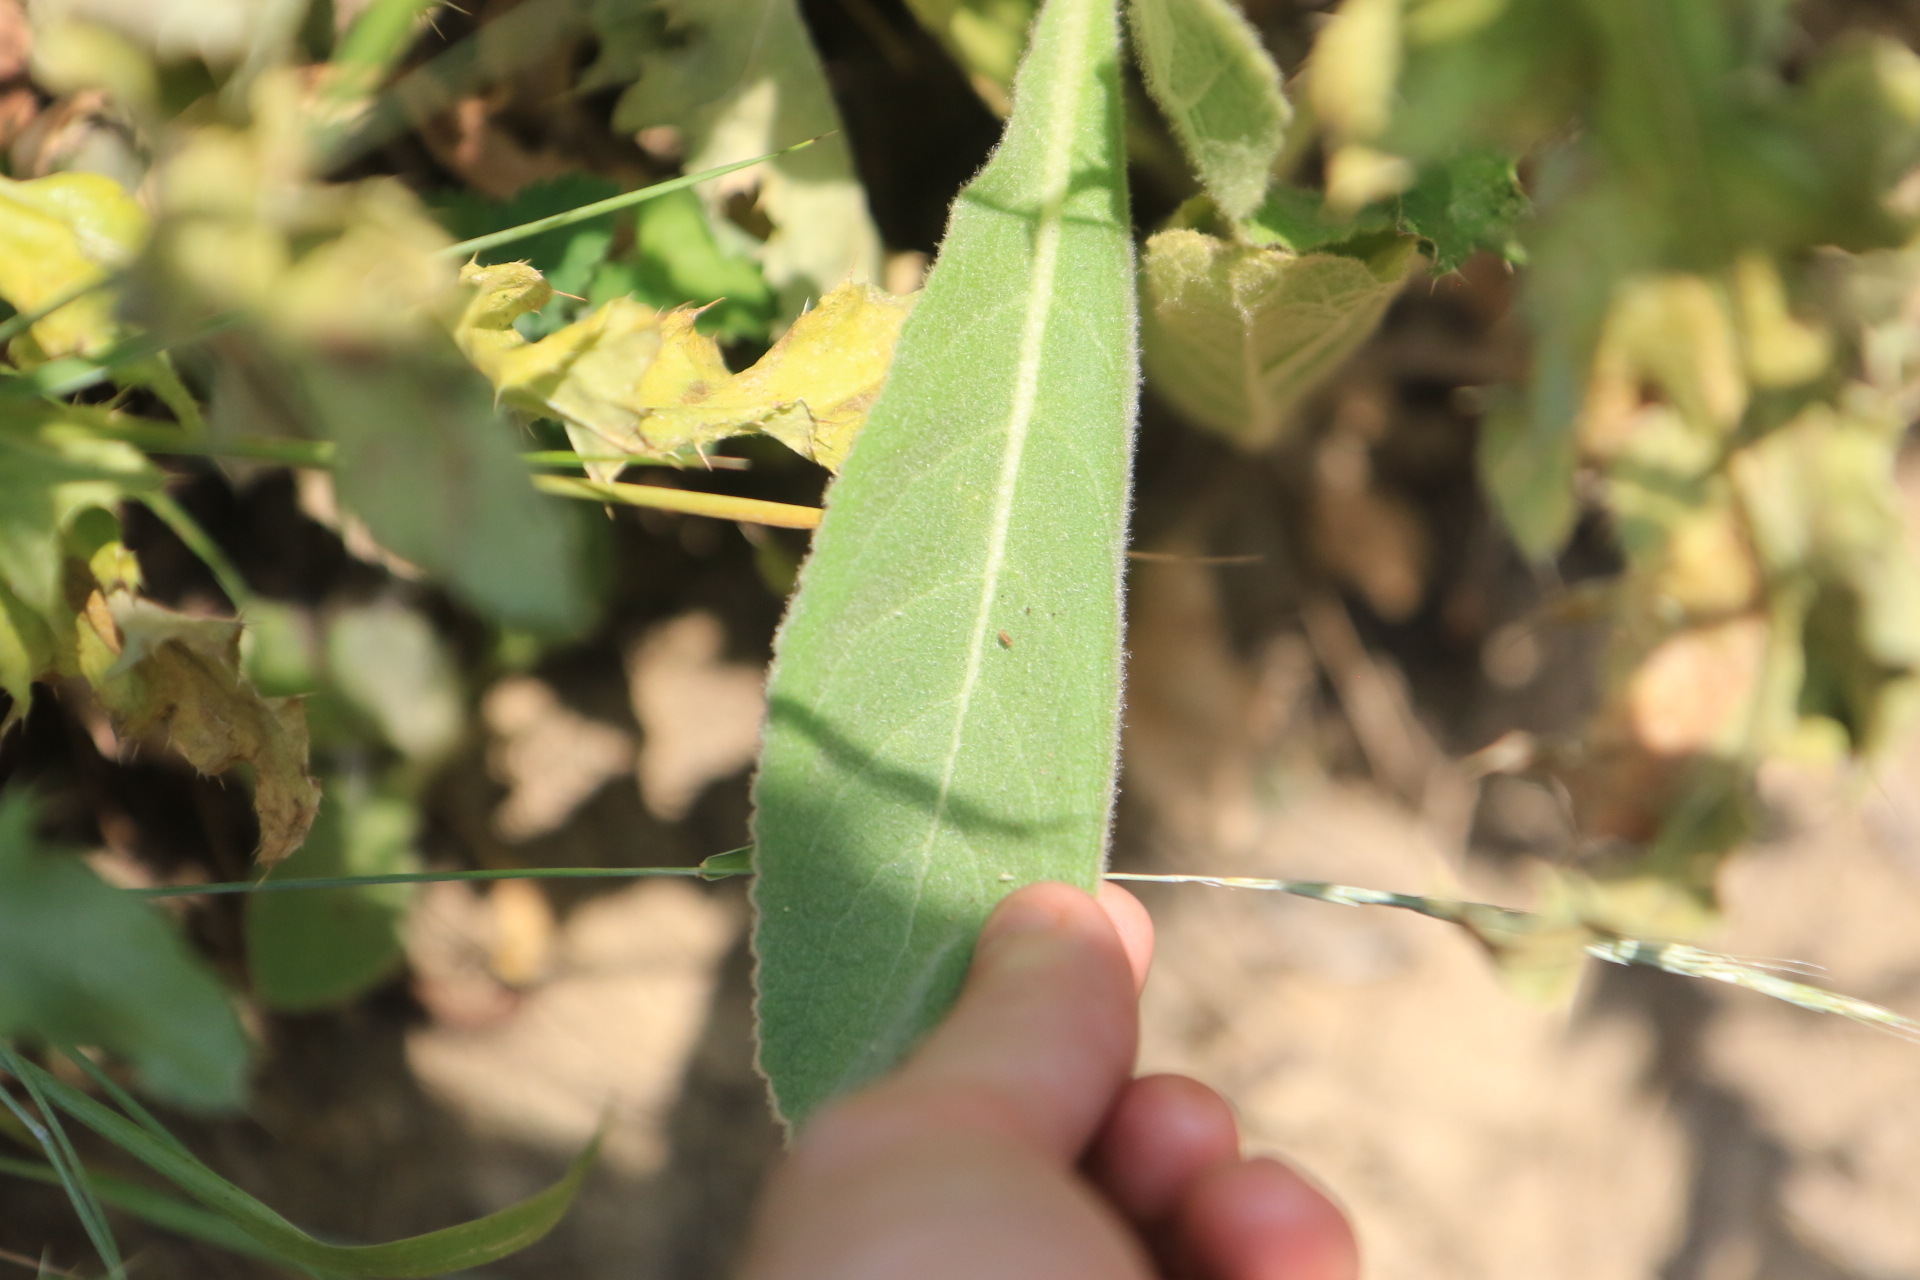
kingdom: Plantae
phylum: Tracheophyta
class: Magnoliopsida
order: Lamiales
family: Scrophulariaceae
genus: Verbascum
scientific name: Verbascum thapsus
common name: Common mullein
